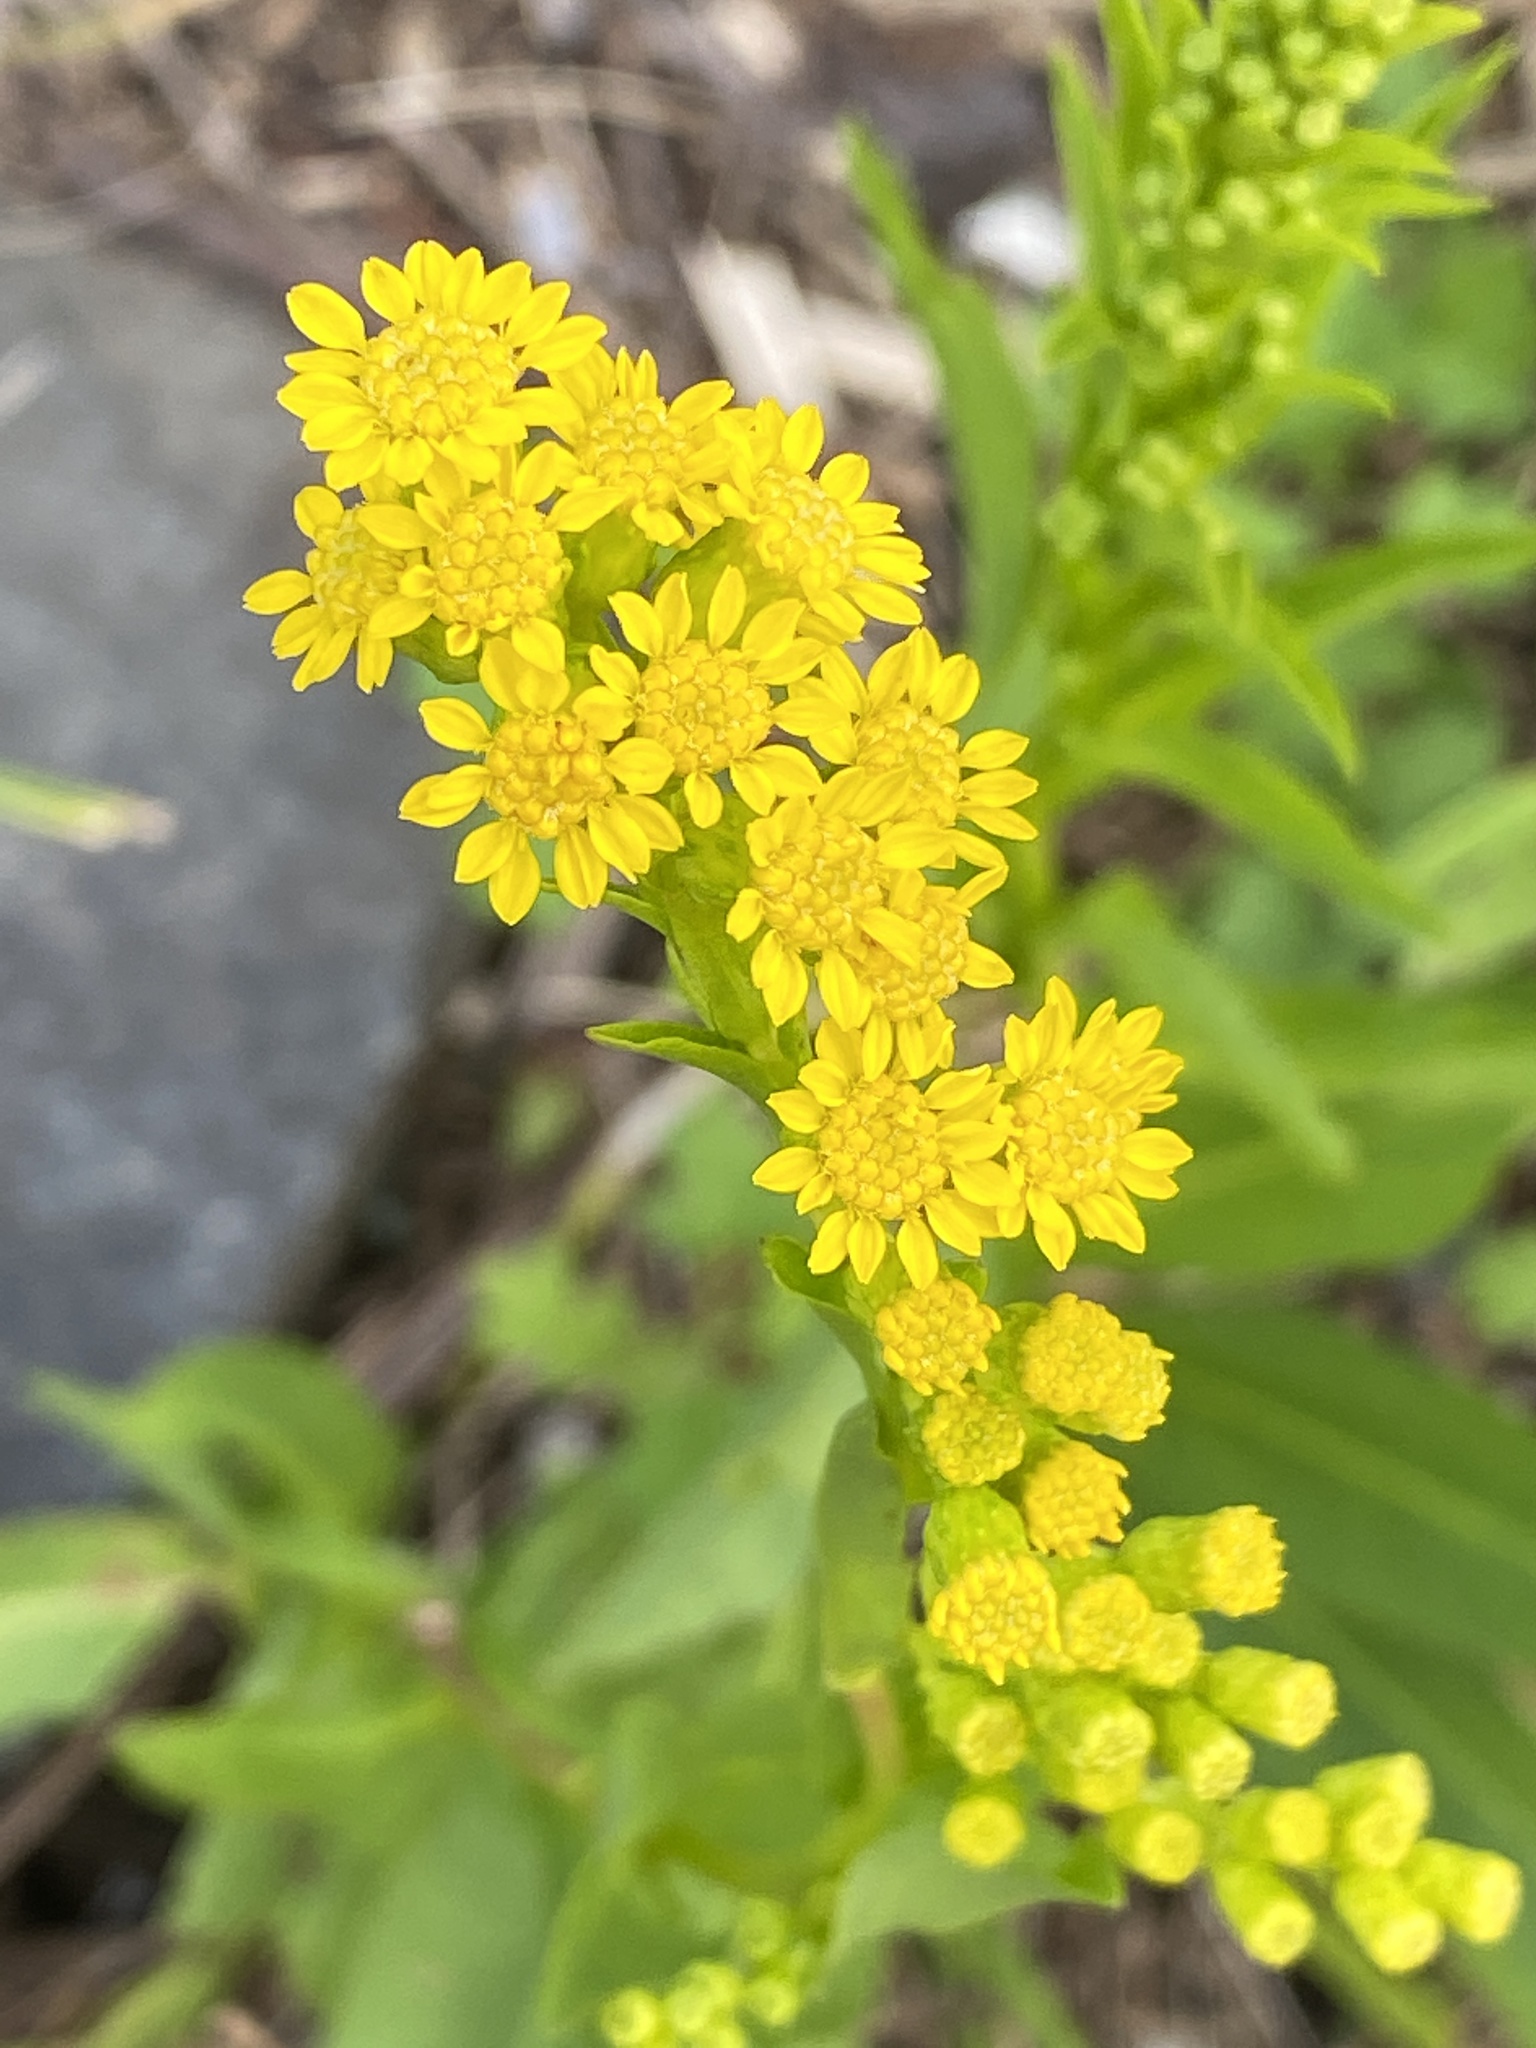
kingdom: Plantae
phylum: Tracheophyta
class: Magnoliopsida
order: Asterales
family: Asteraceae
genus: Solidago
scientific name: Solidago sempervirens
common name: Salt-marsh goldenrod
